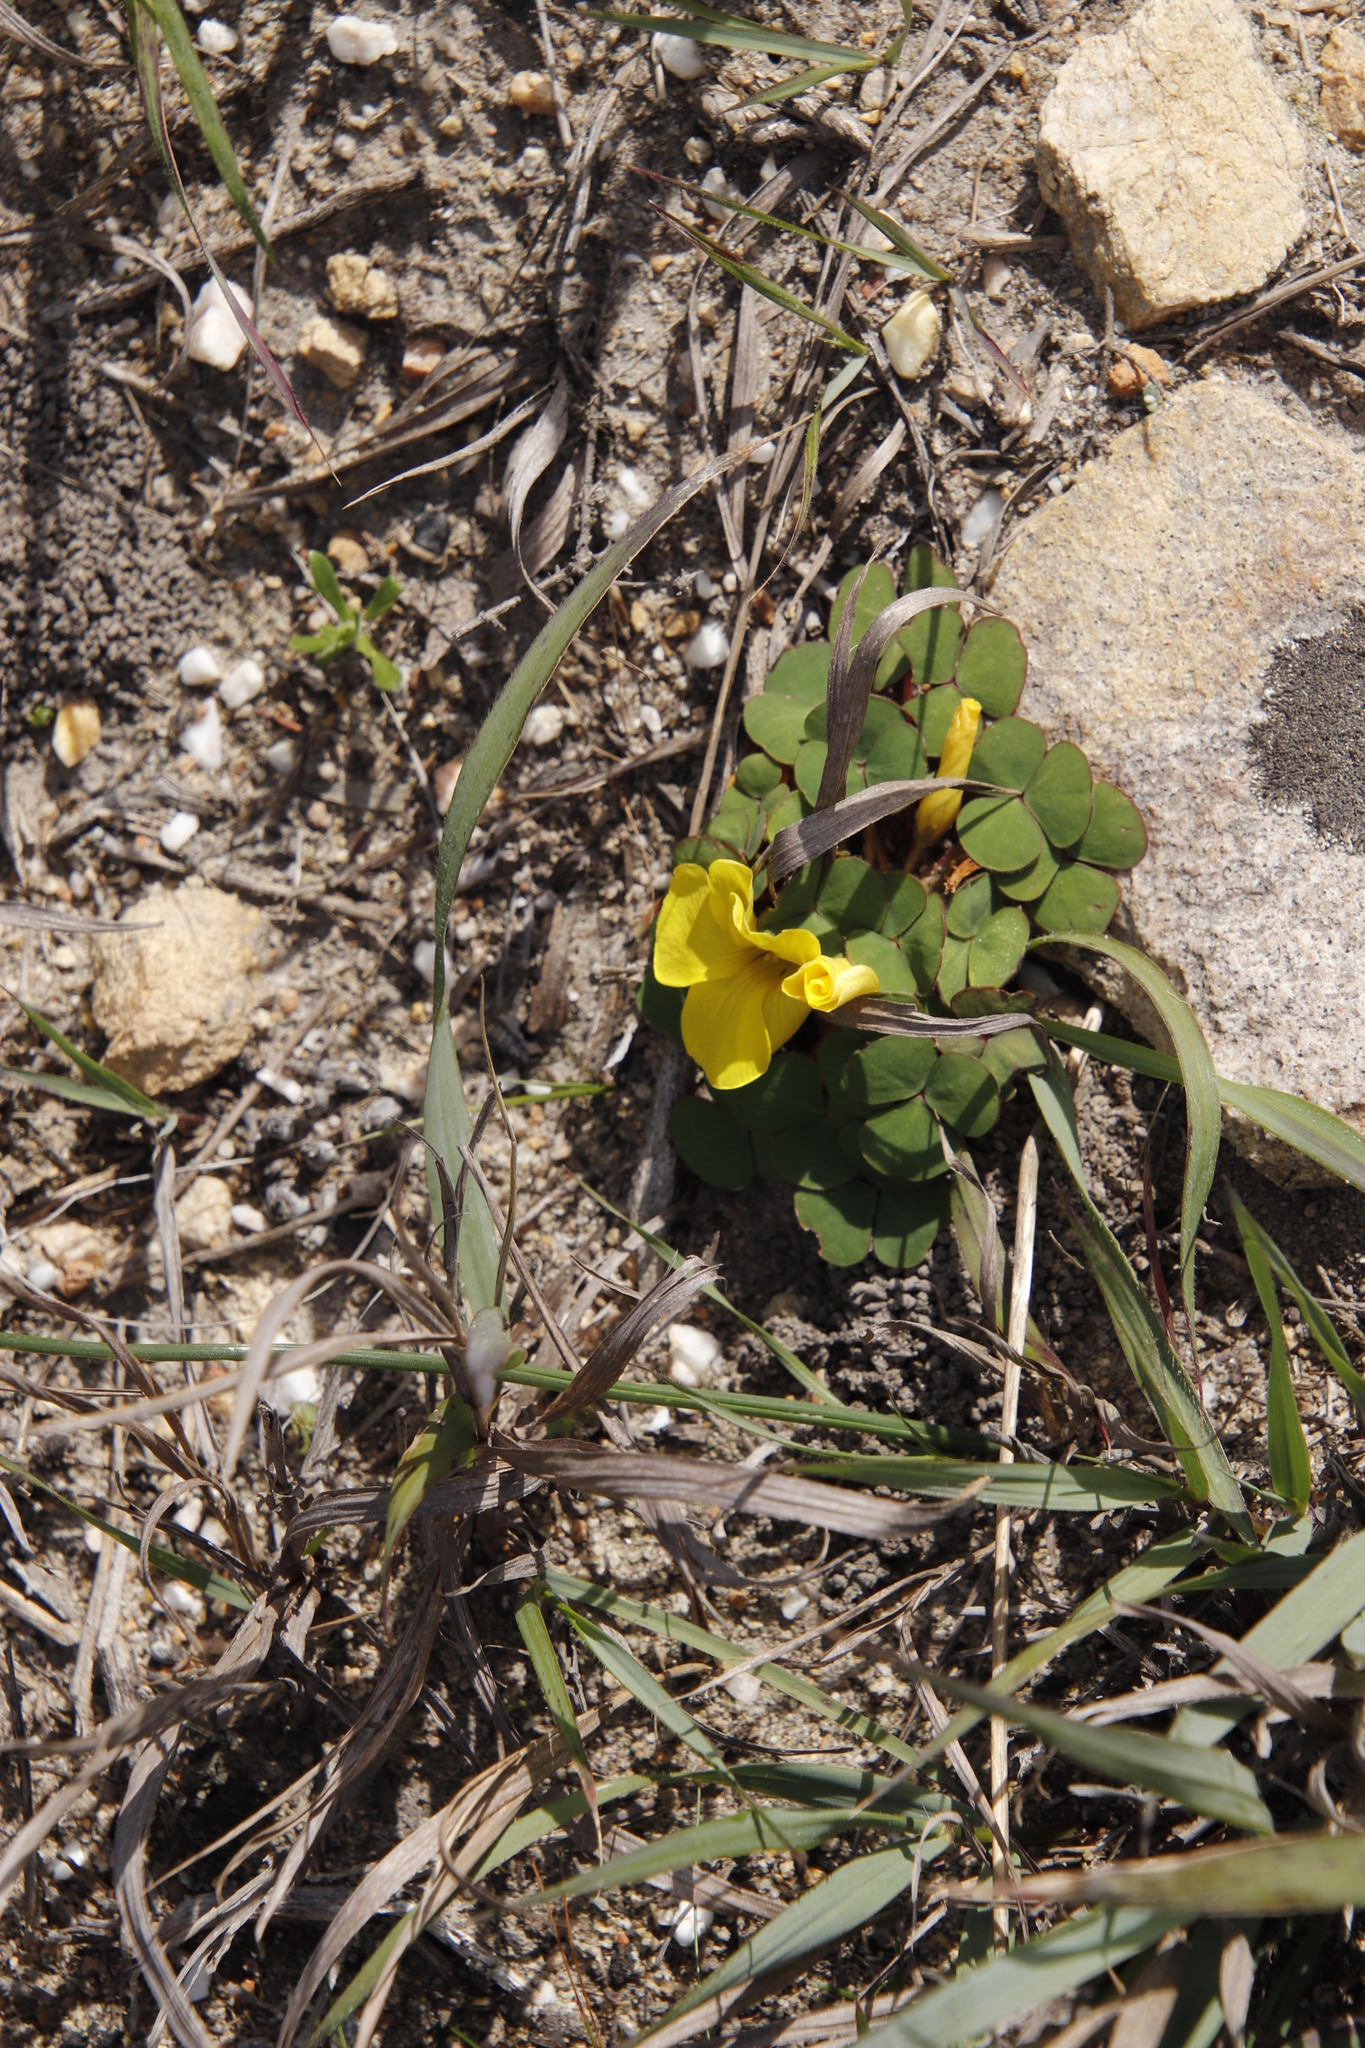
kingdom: Plantae
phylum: Tracheophyta
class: Magnoliopsida
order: Oxalidales
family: Oxalidaceae
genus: Oxalis
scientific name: Oxalis luteola
